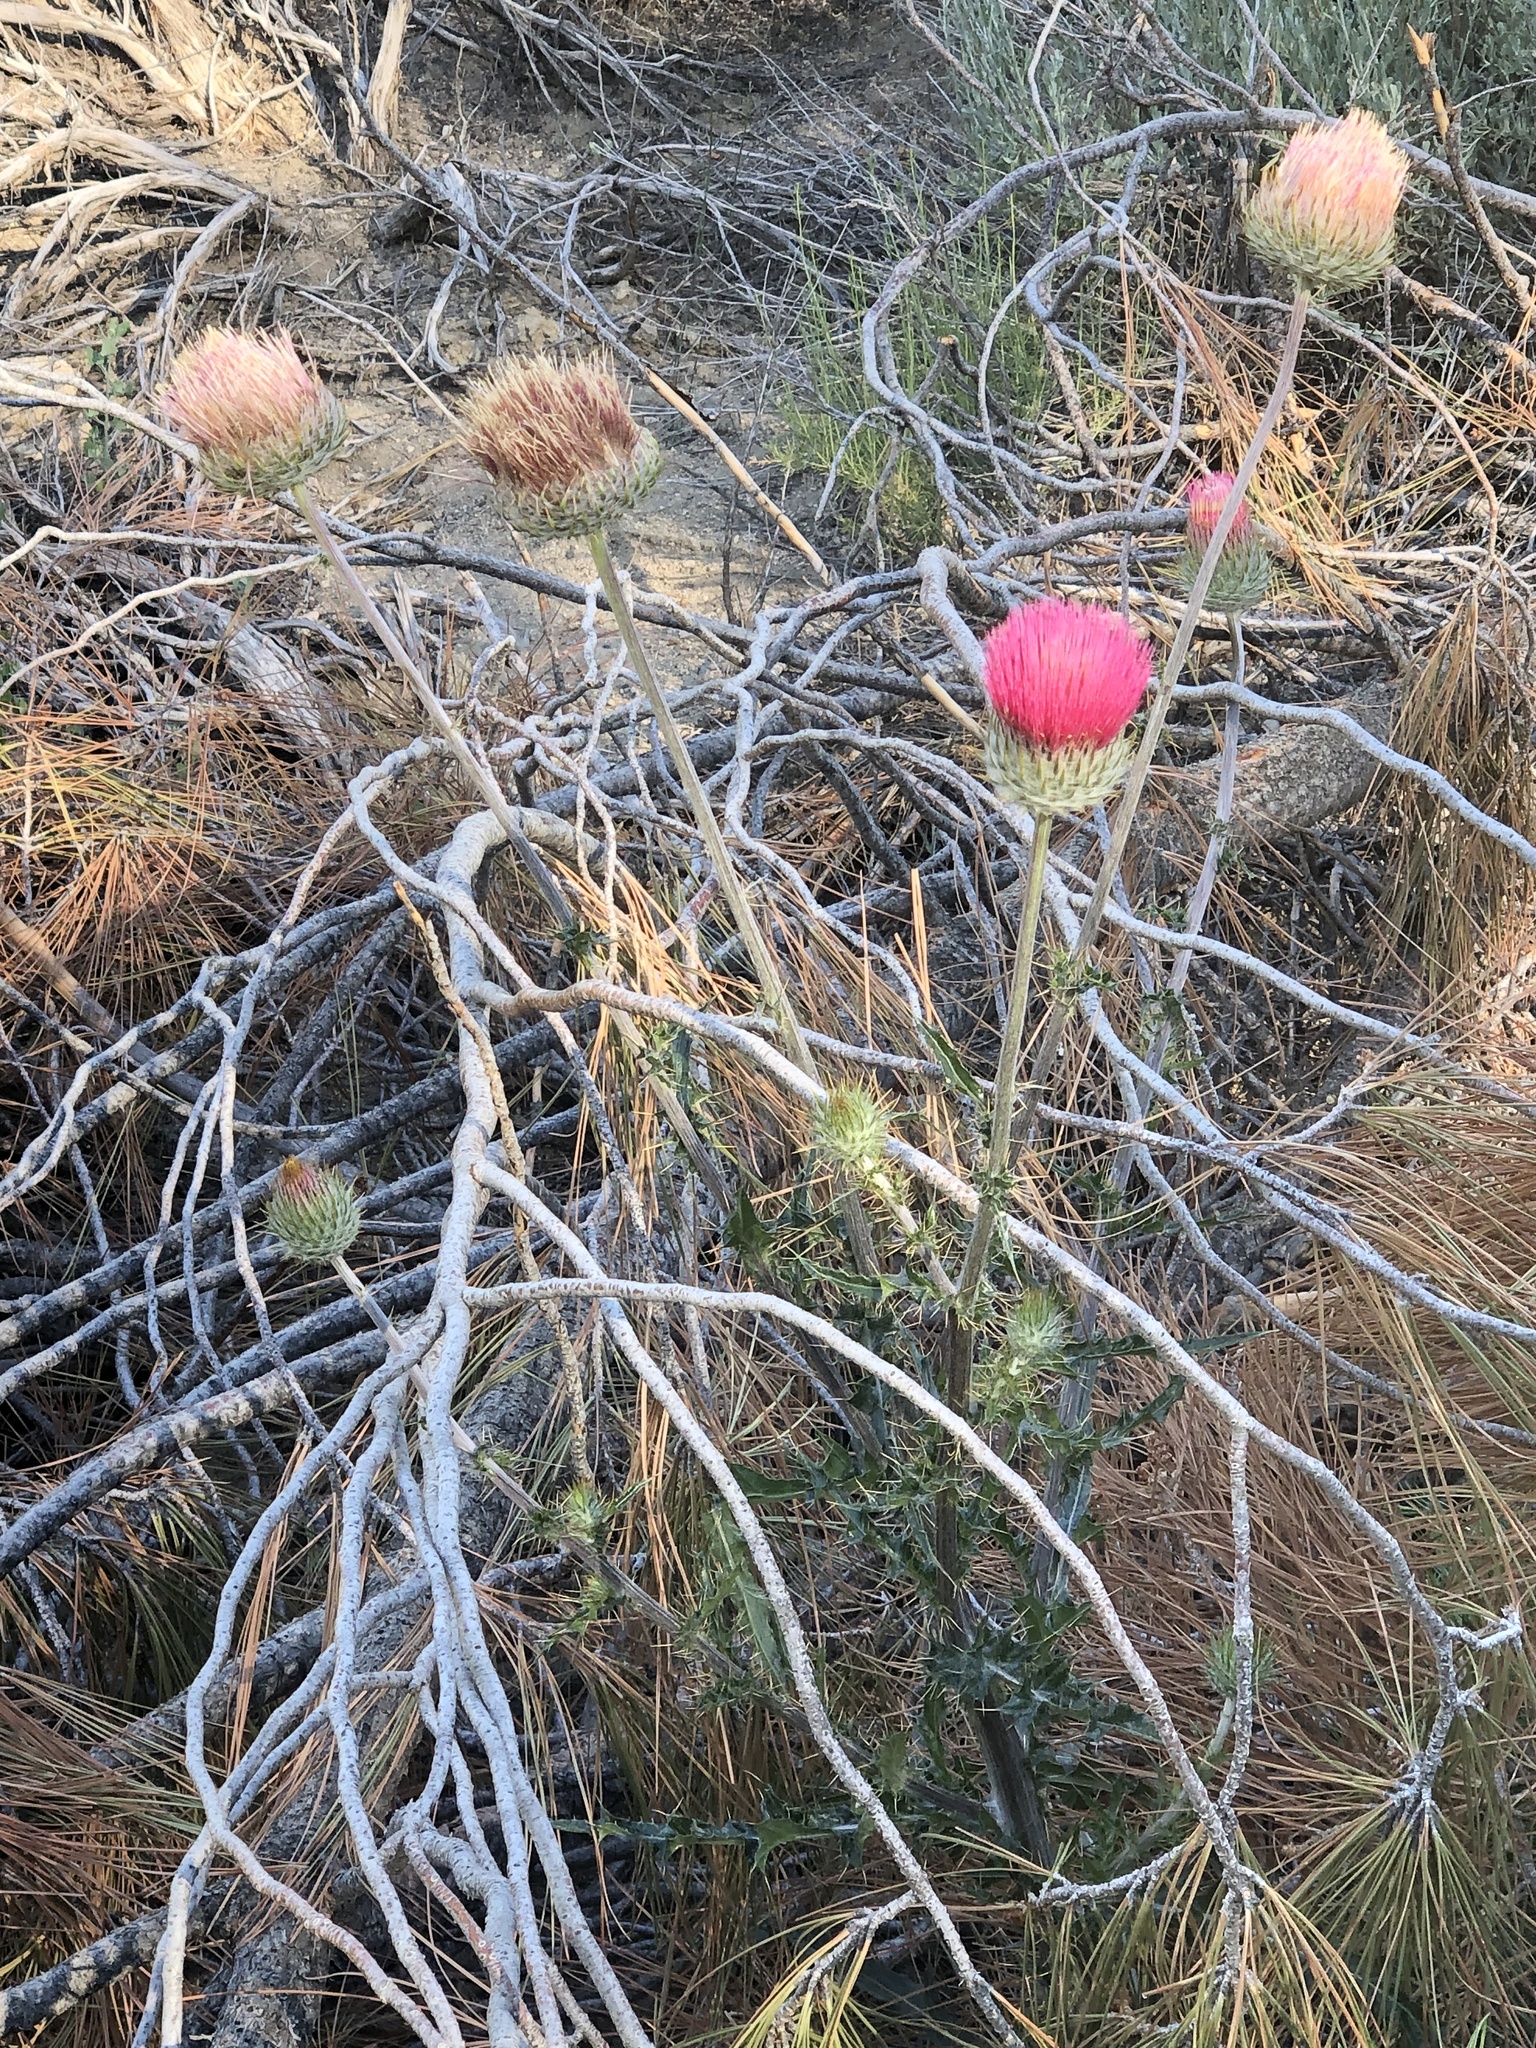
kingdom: Plantae
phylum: Tracheophyta
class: Magnoliopsida
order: Asterales
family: Asteraceae
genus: Cirsium
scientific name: Cirsium occidentale
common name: Western thistle
